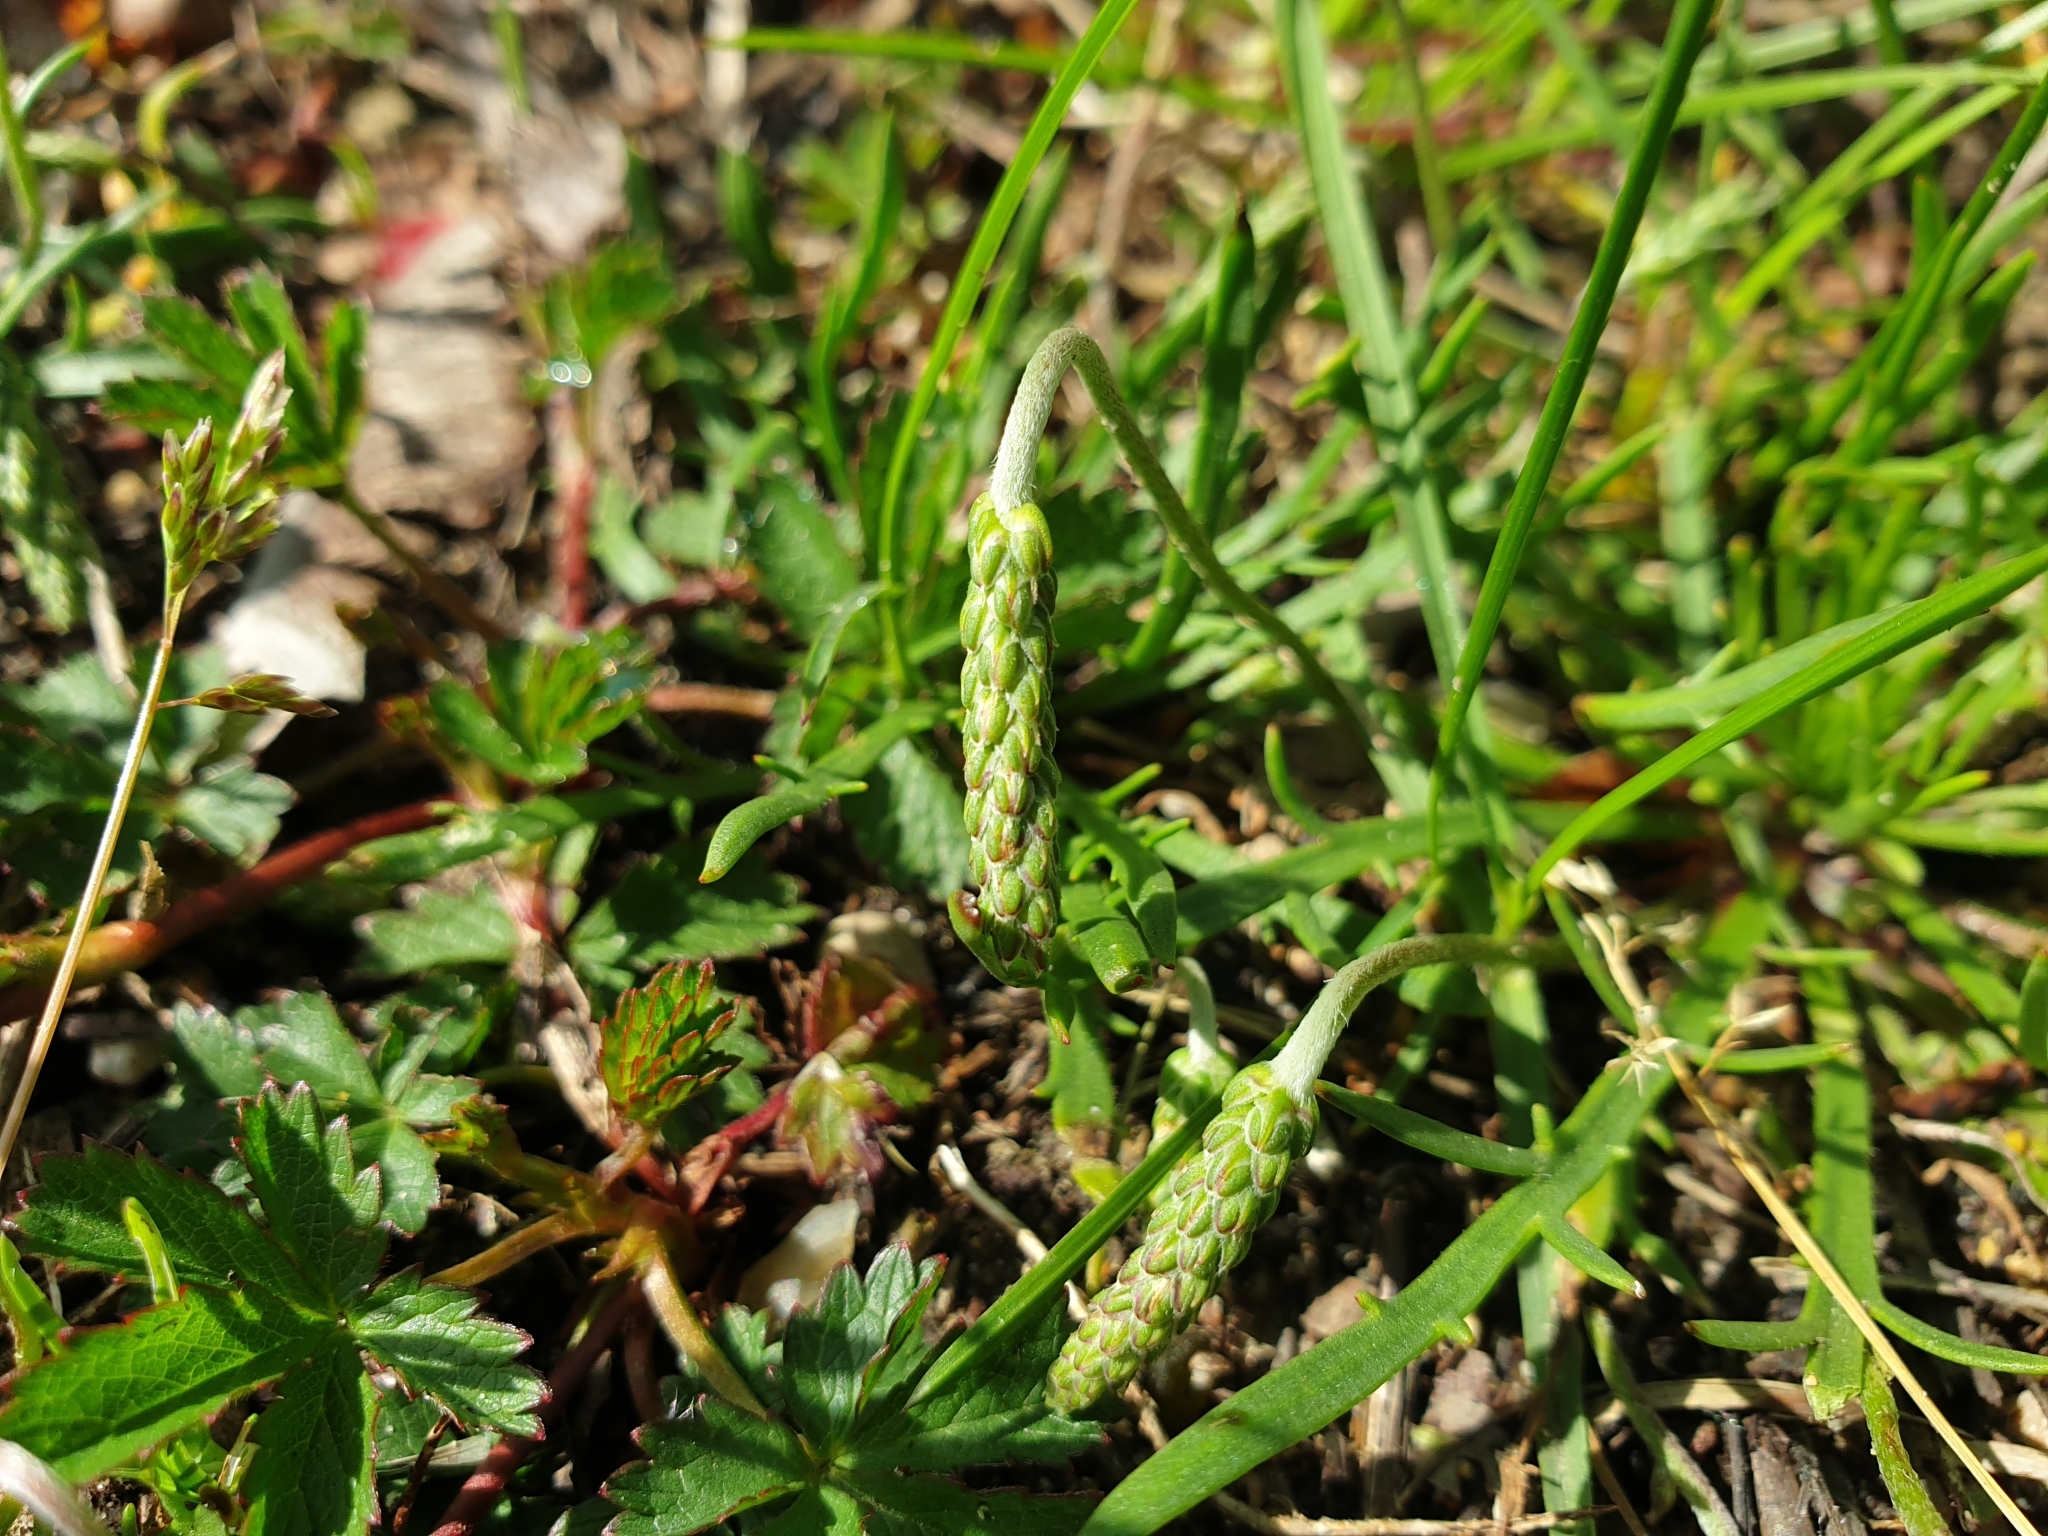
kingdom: Plantae
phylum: Tracheophyta
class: Magnoliopsida
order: Lamiales
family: Plantaginaceae
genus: Plantago
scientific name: Plantago coronopus
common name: Buck's-horn plantain
